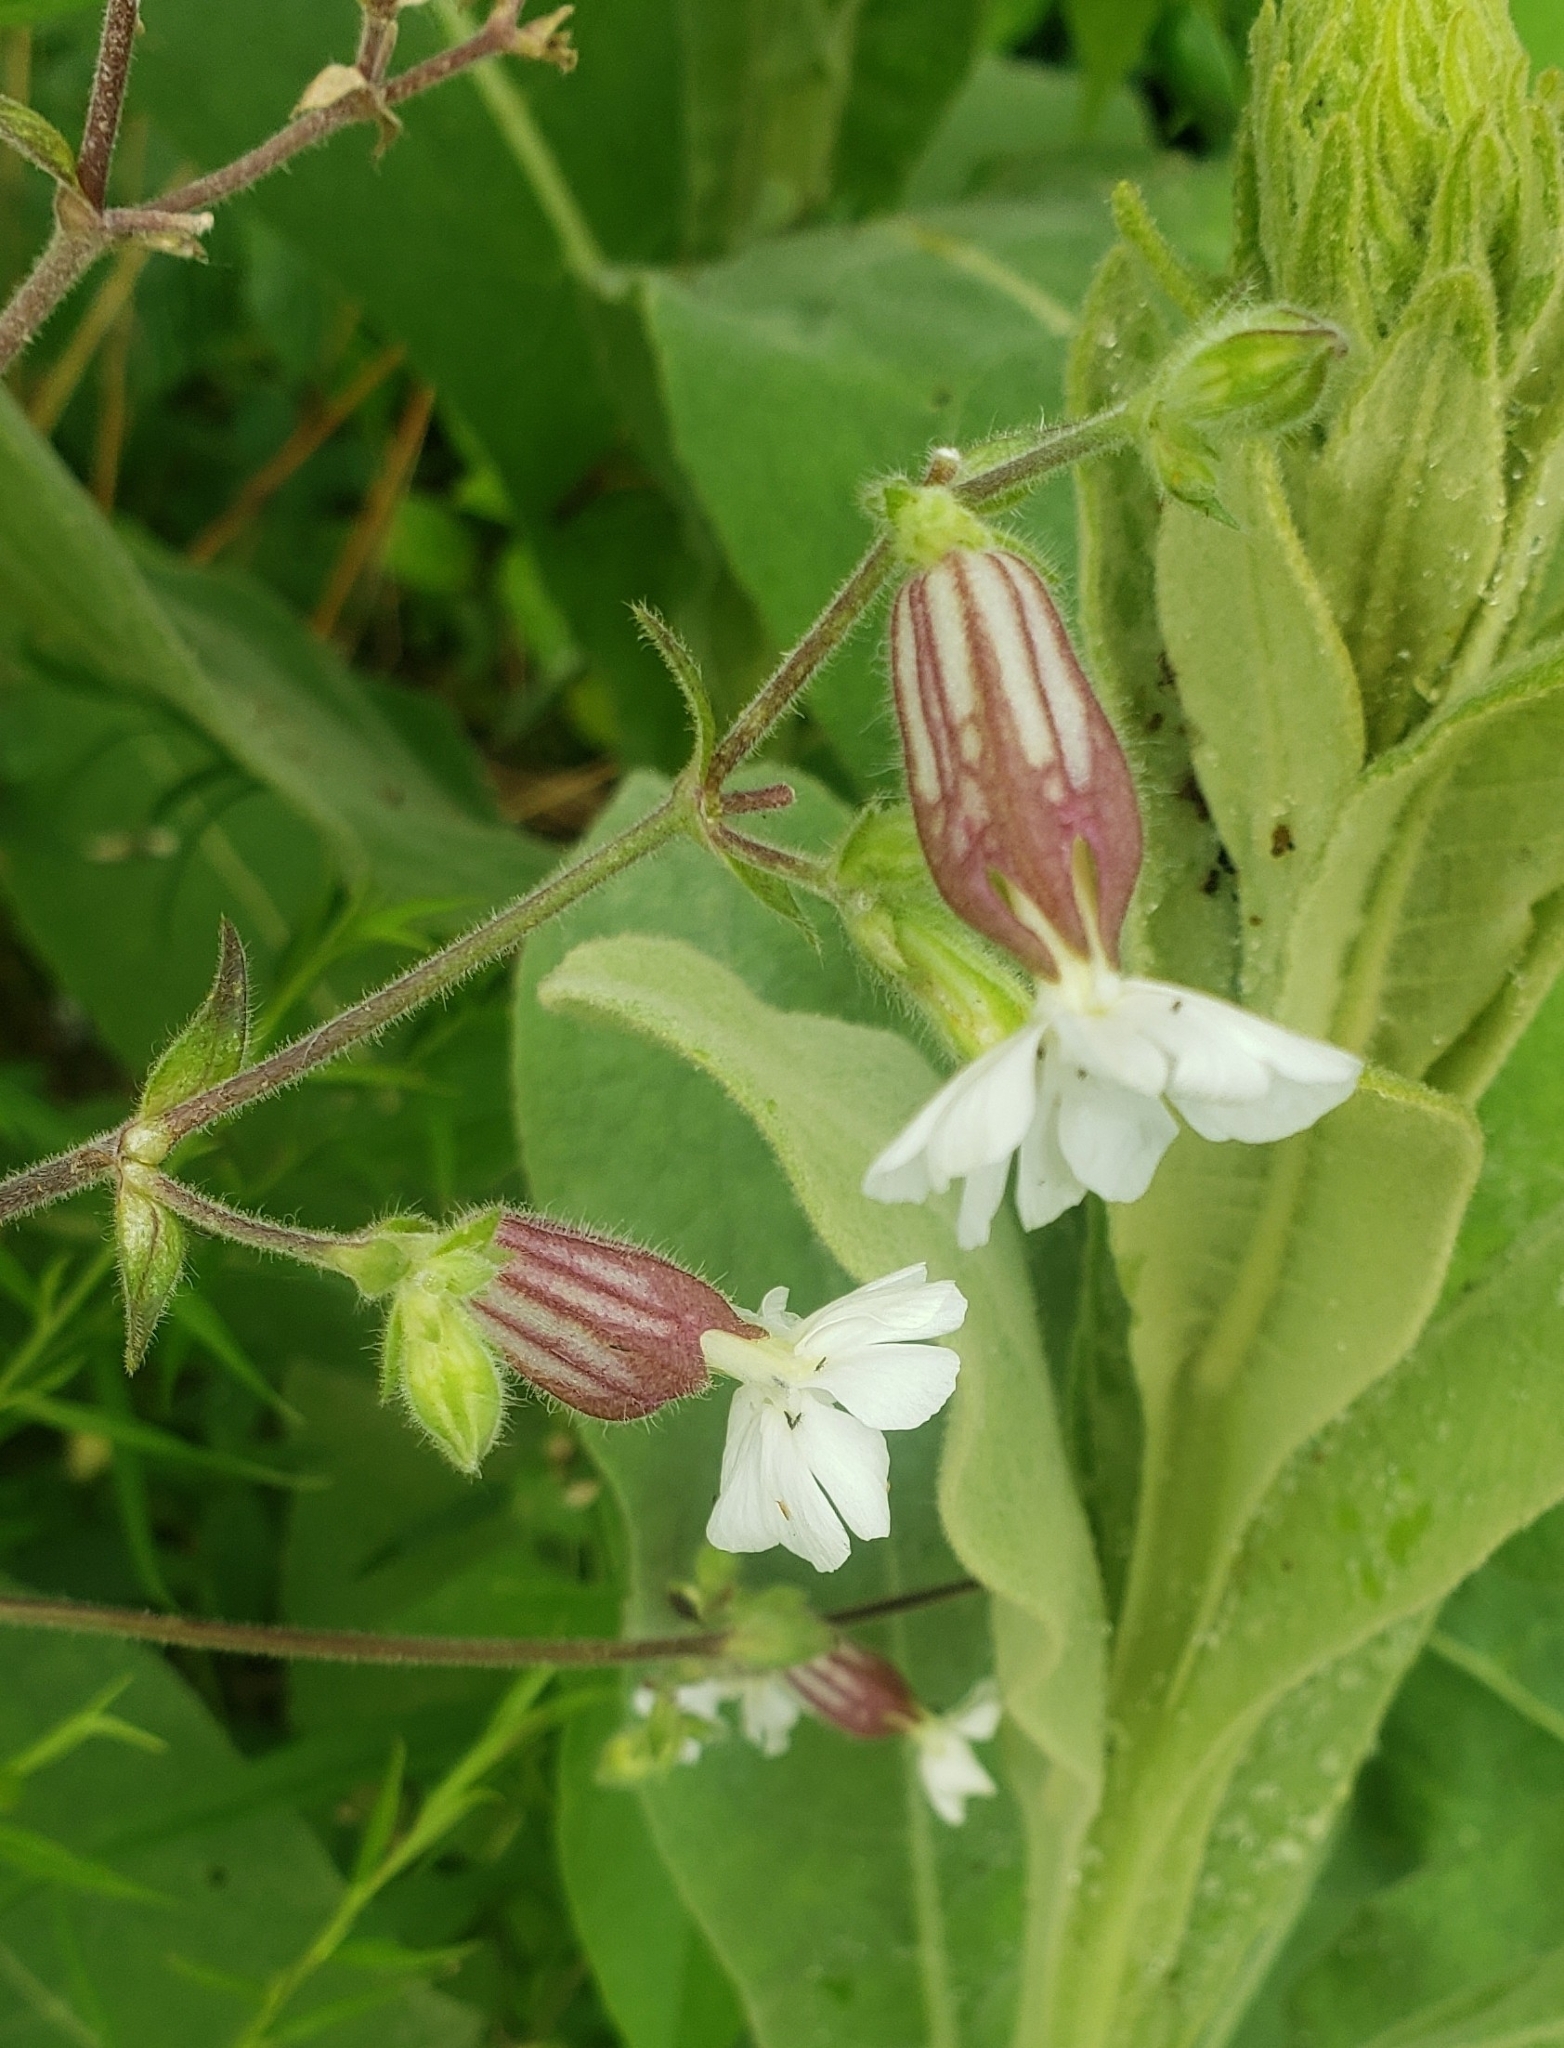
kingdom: Plantae
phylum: Tracheophyta
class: Magnoliopsida
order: Caryophyllales
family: Caryophyllaceae
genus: Silene
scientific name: Silene latifolia
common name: White campion
